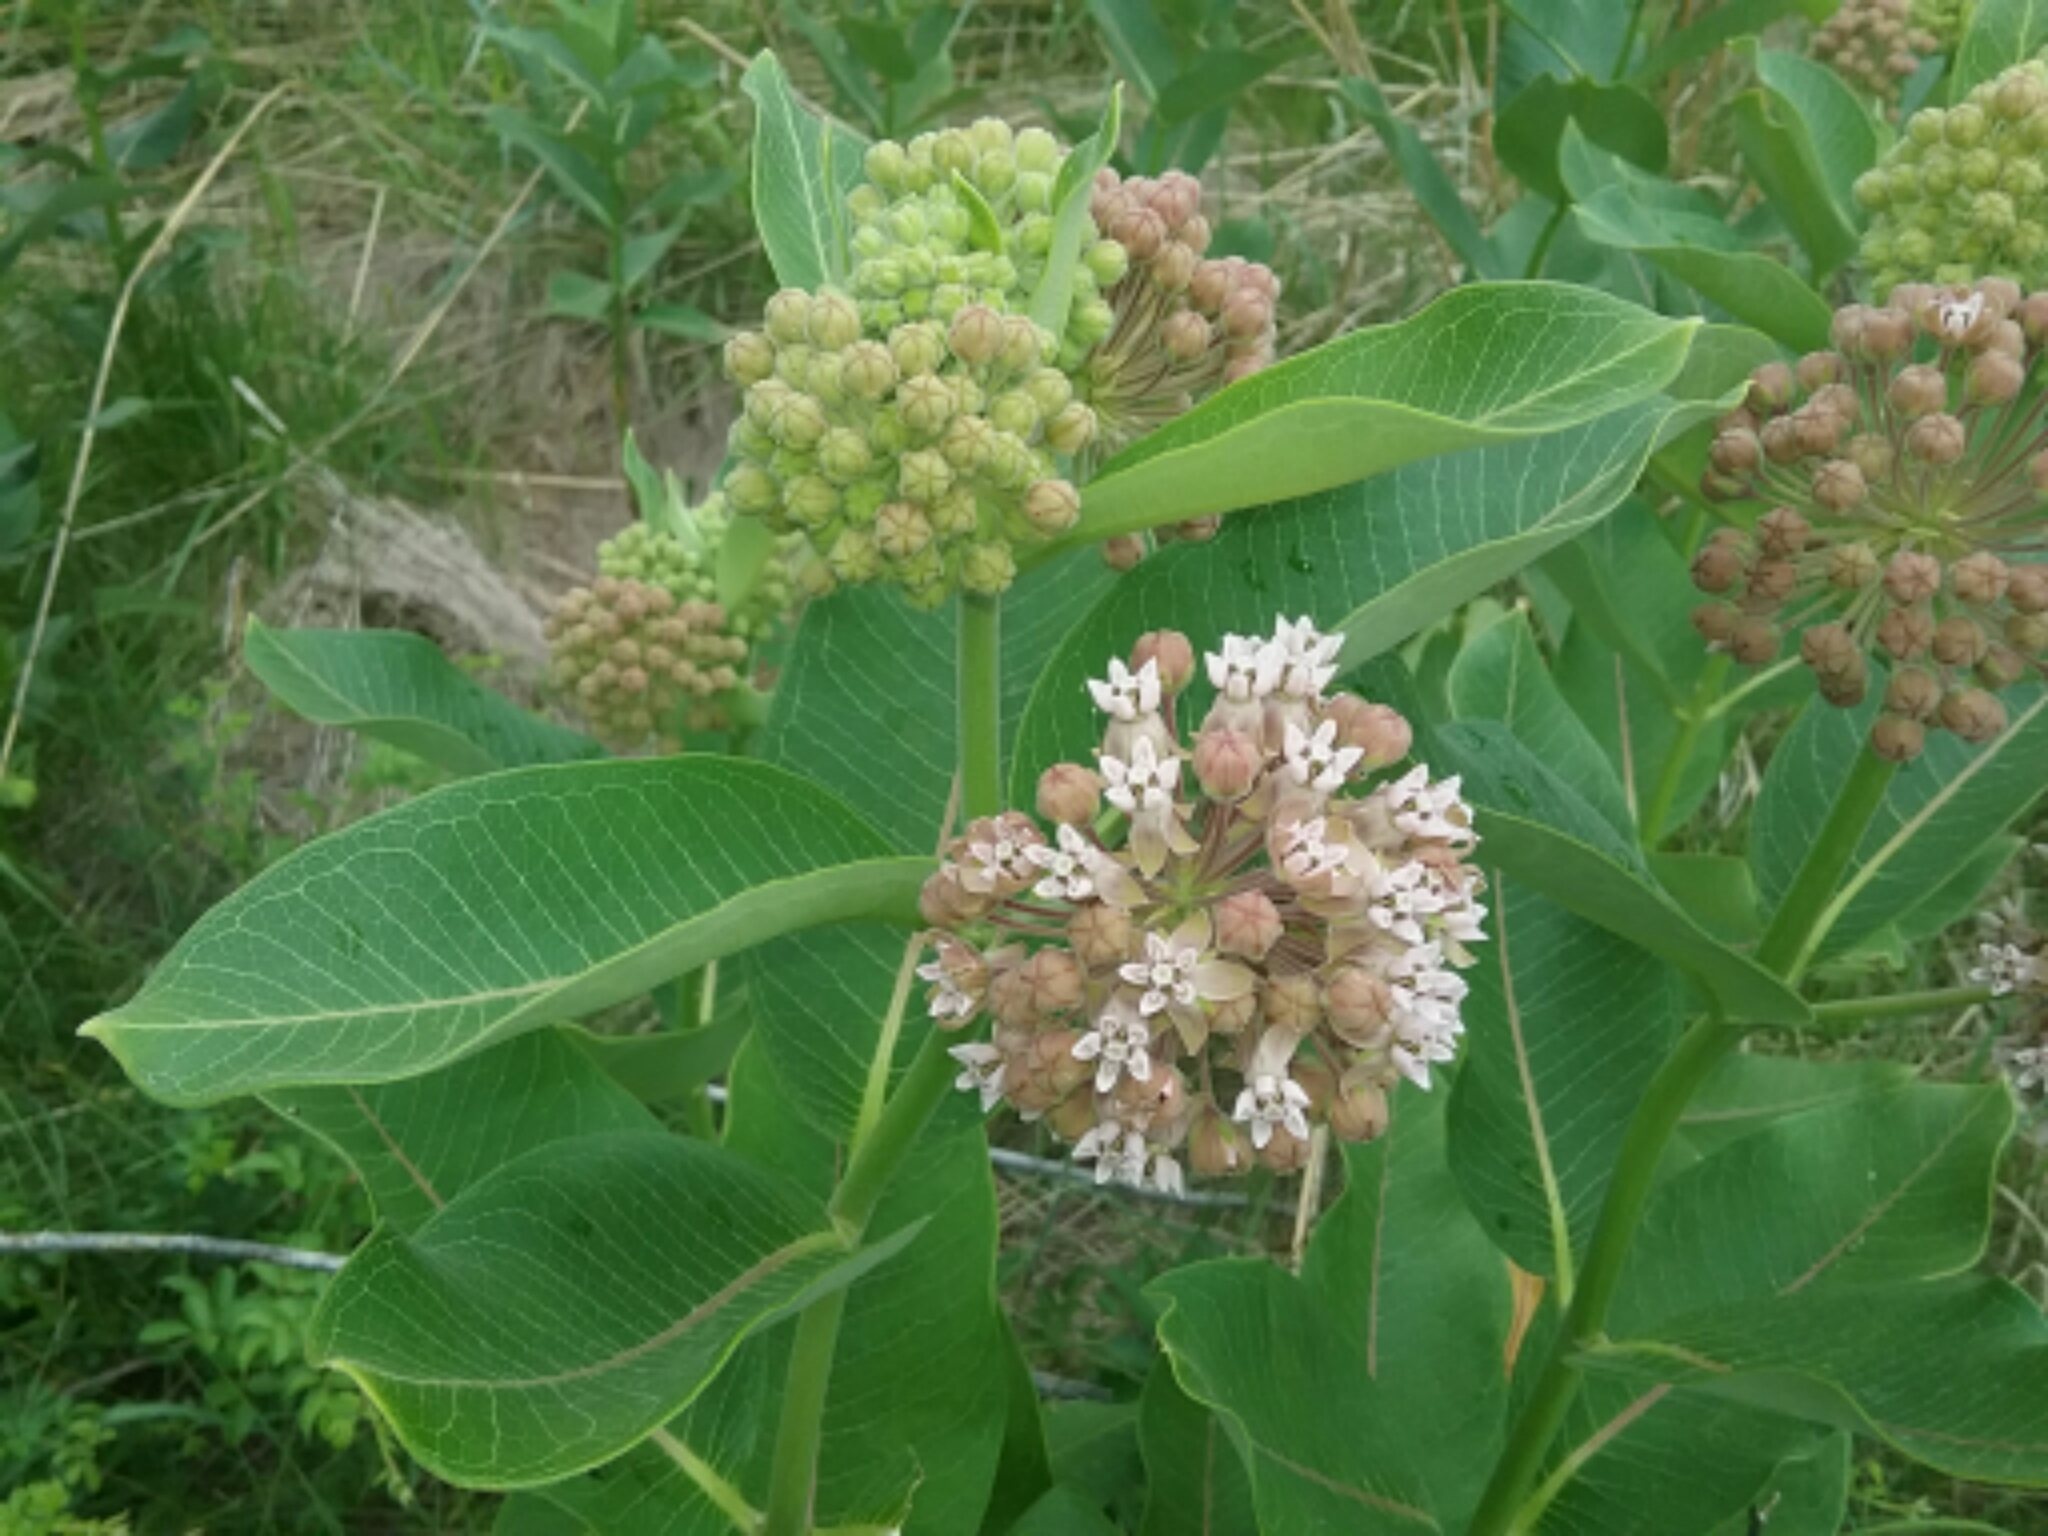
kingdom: Plantae
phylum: Tracheophyta
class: Magnoliopsida
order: Gentianales
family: Apocynaceae
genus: Asclepias
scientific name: Asclepias syriaca
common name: Common milkweed
